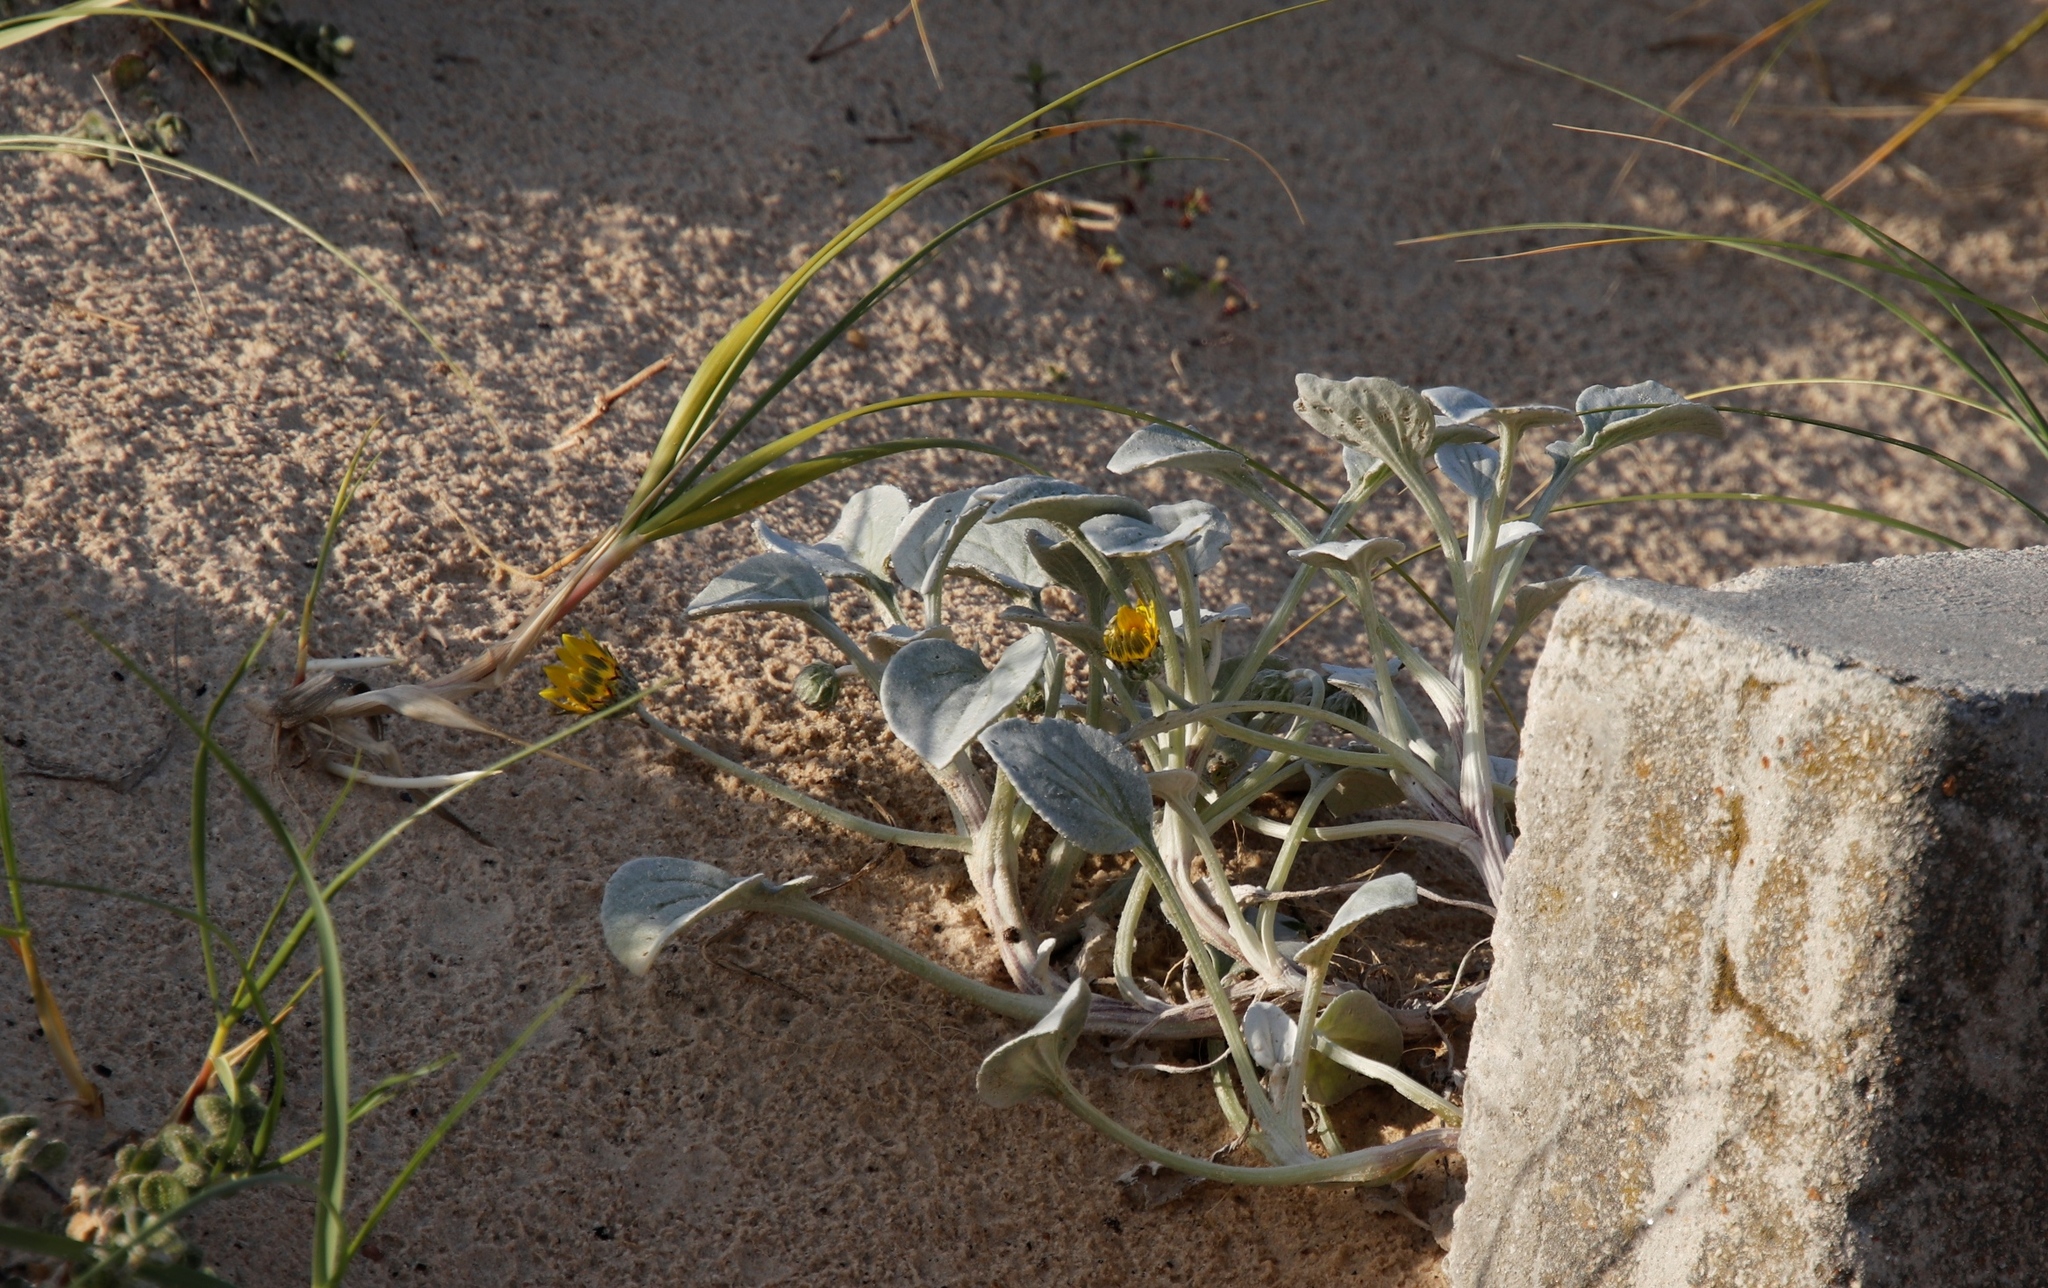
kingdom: Plantae
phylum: Tracheophyta
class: Magnoliopsida
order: Asterales
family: Asteraceae
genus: Arctotheca
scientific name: Arctotheca populifolia
